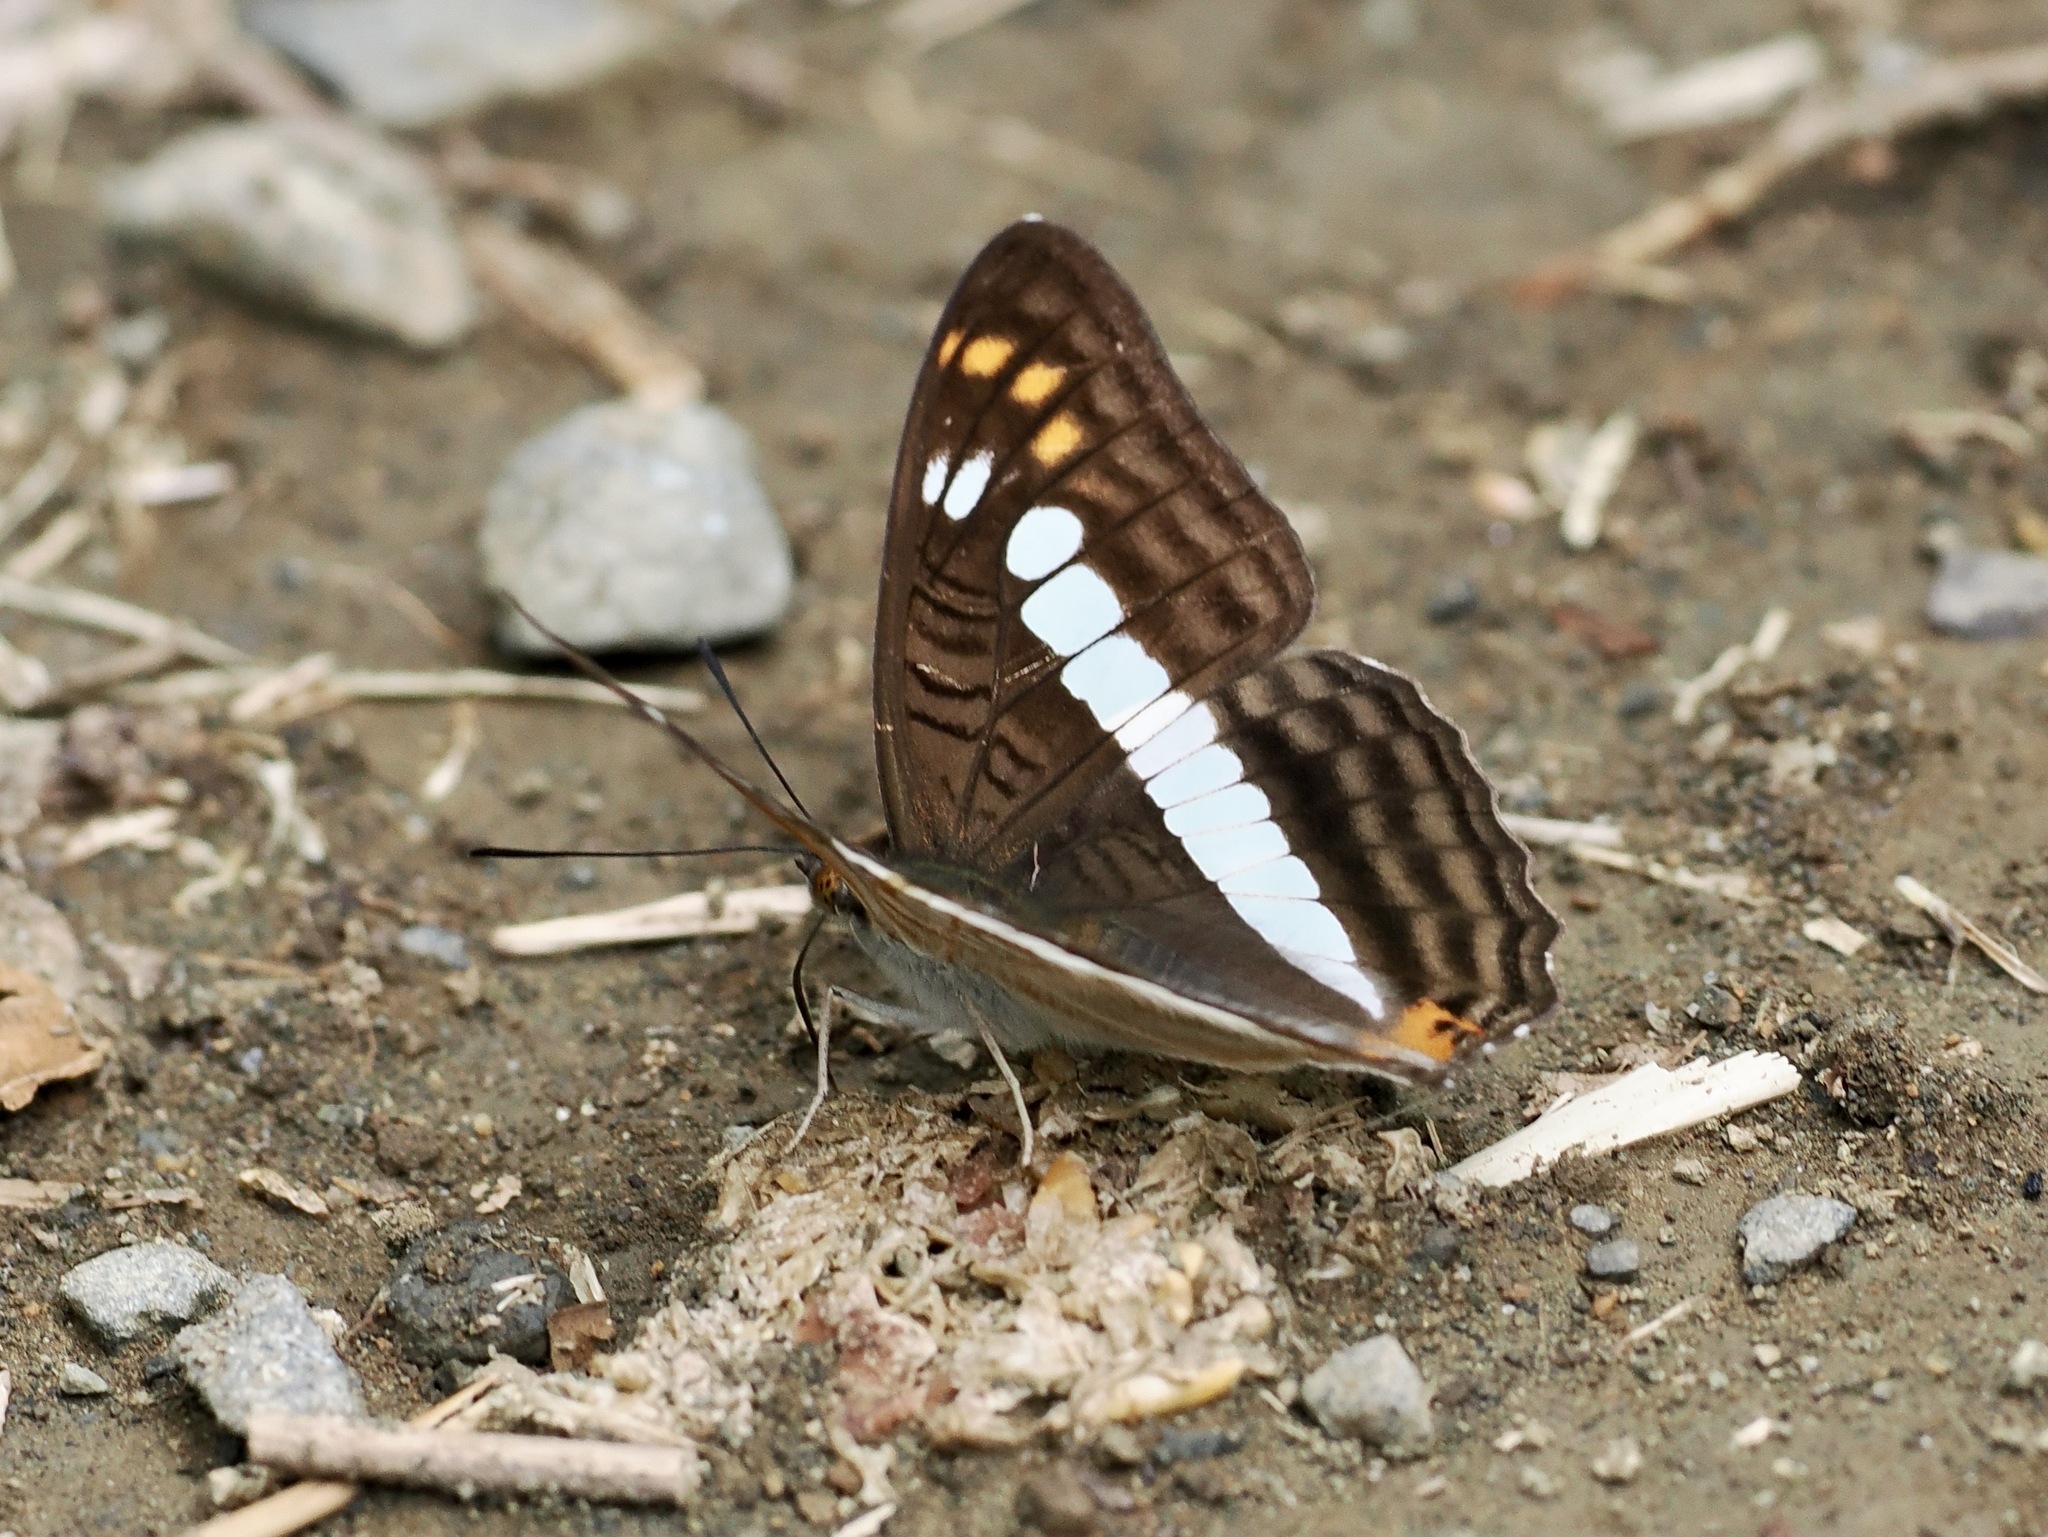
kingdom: Animalia
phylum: Arthropoda
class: Insecta
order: Lepidoptera
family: Nymphalidae
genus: Limenitis
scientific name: Limenitis alala
